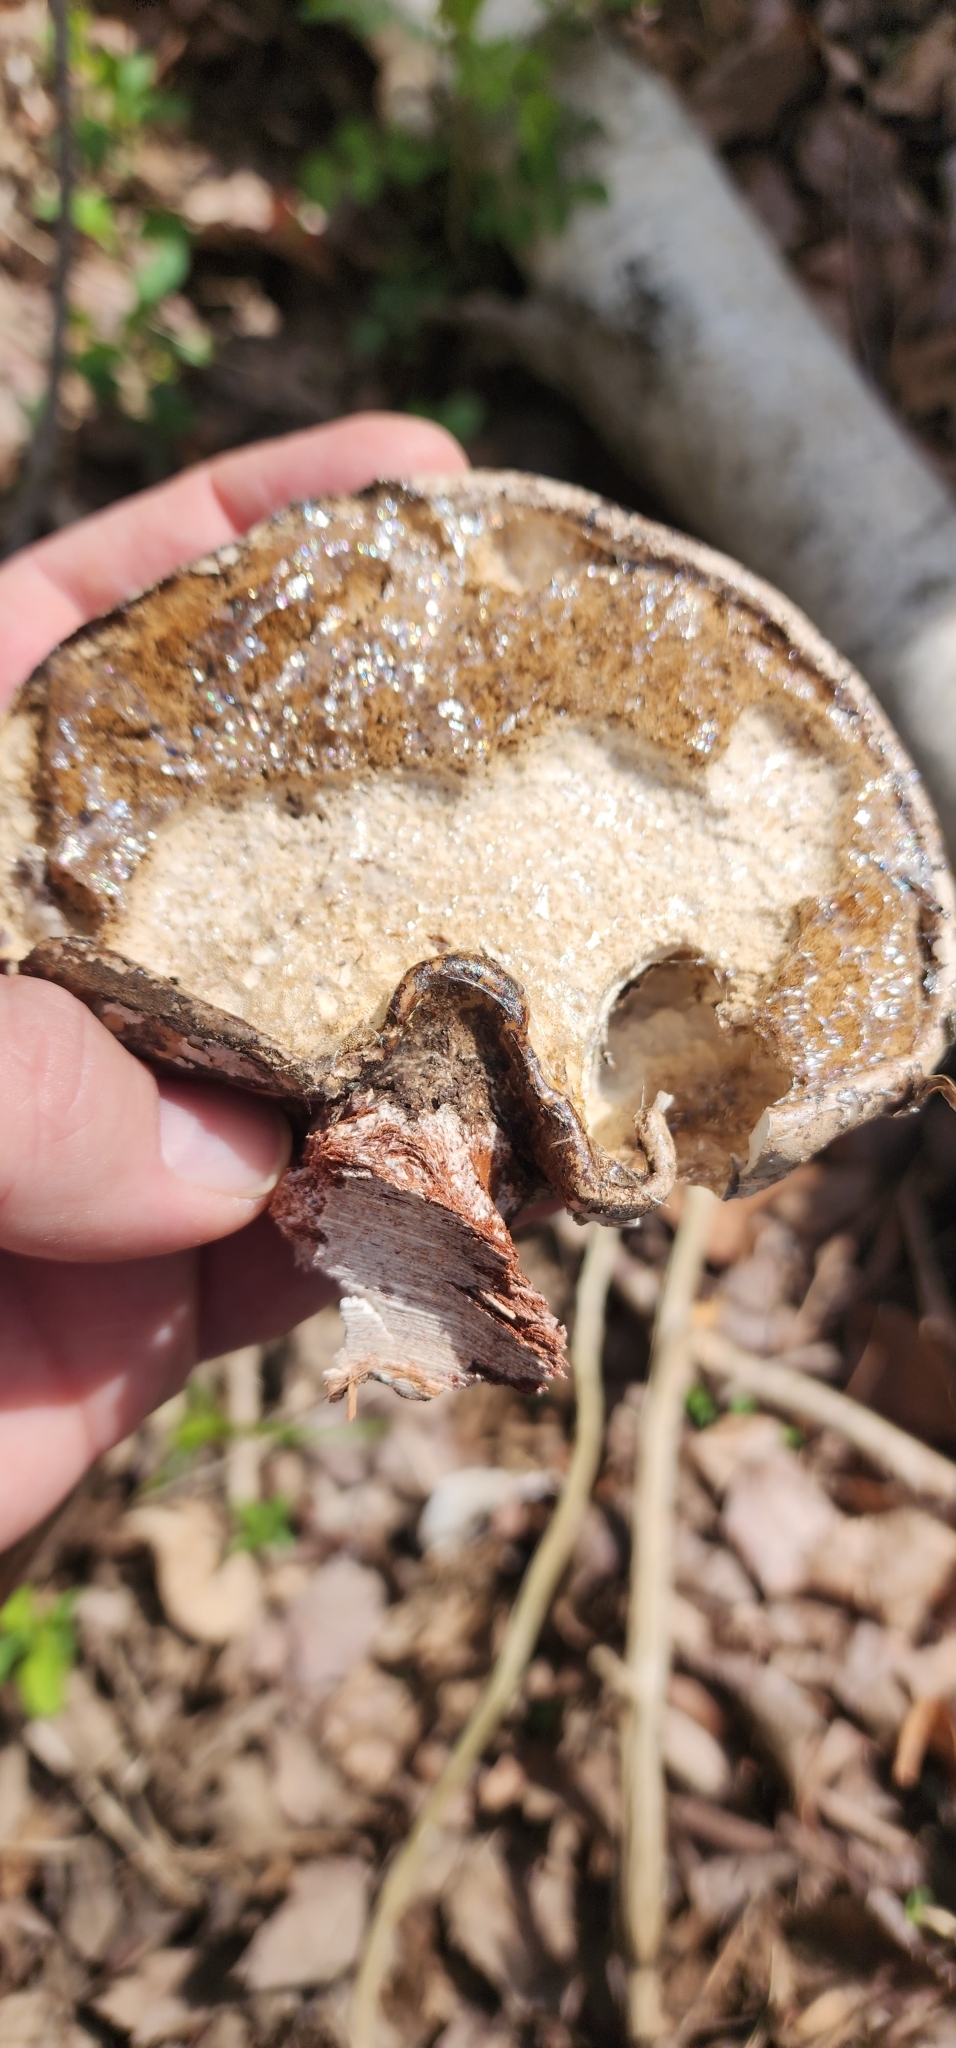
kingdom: Fungi
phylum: Basidiomycota
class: Agaricomycetes
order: Polyporales
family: Fomitopsidaceae
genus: Fomitopsis
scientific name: Fomitopsis betulina
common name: Birch polypore
